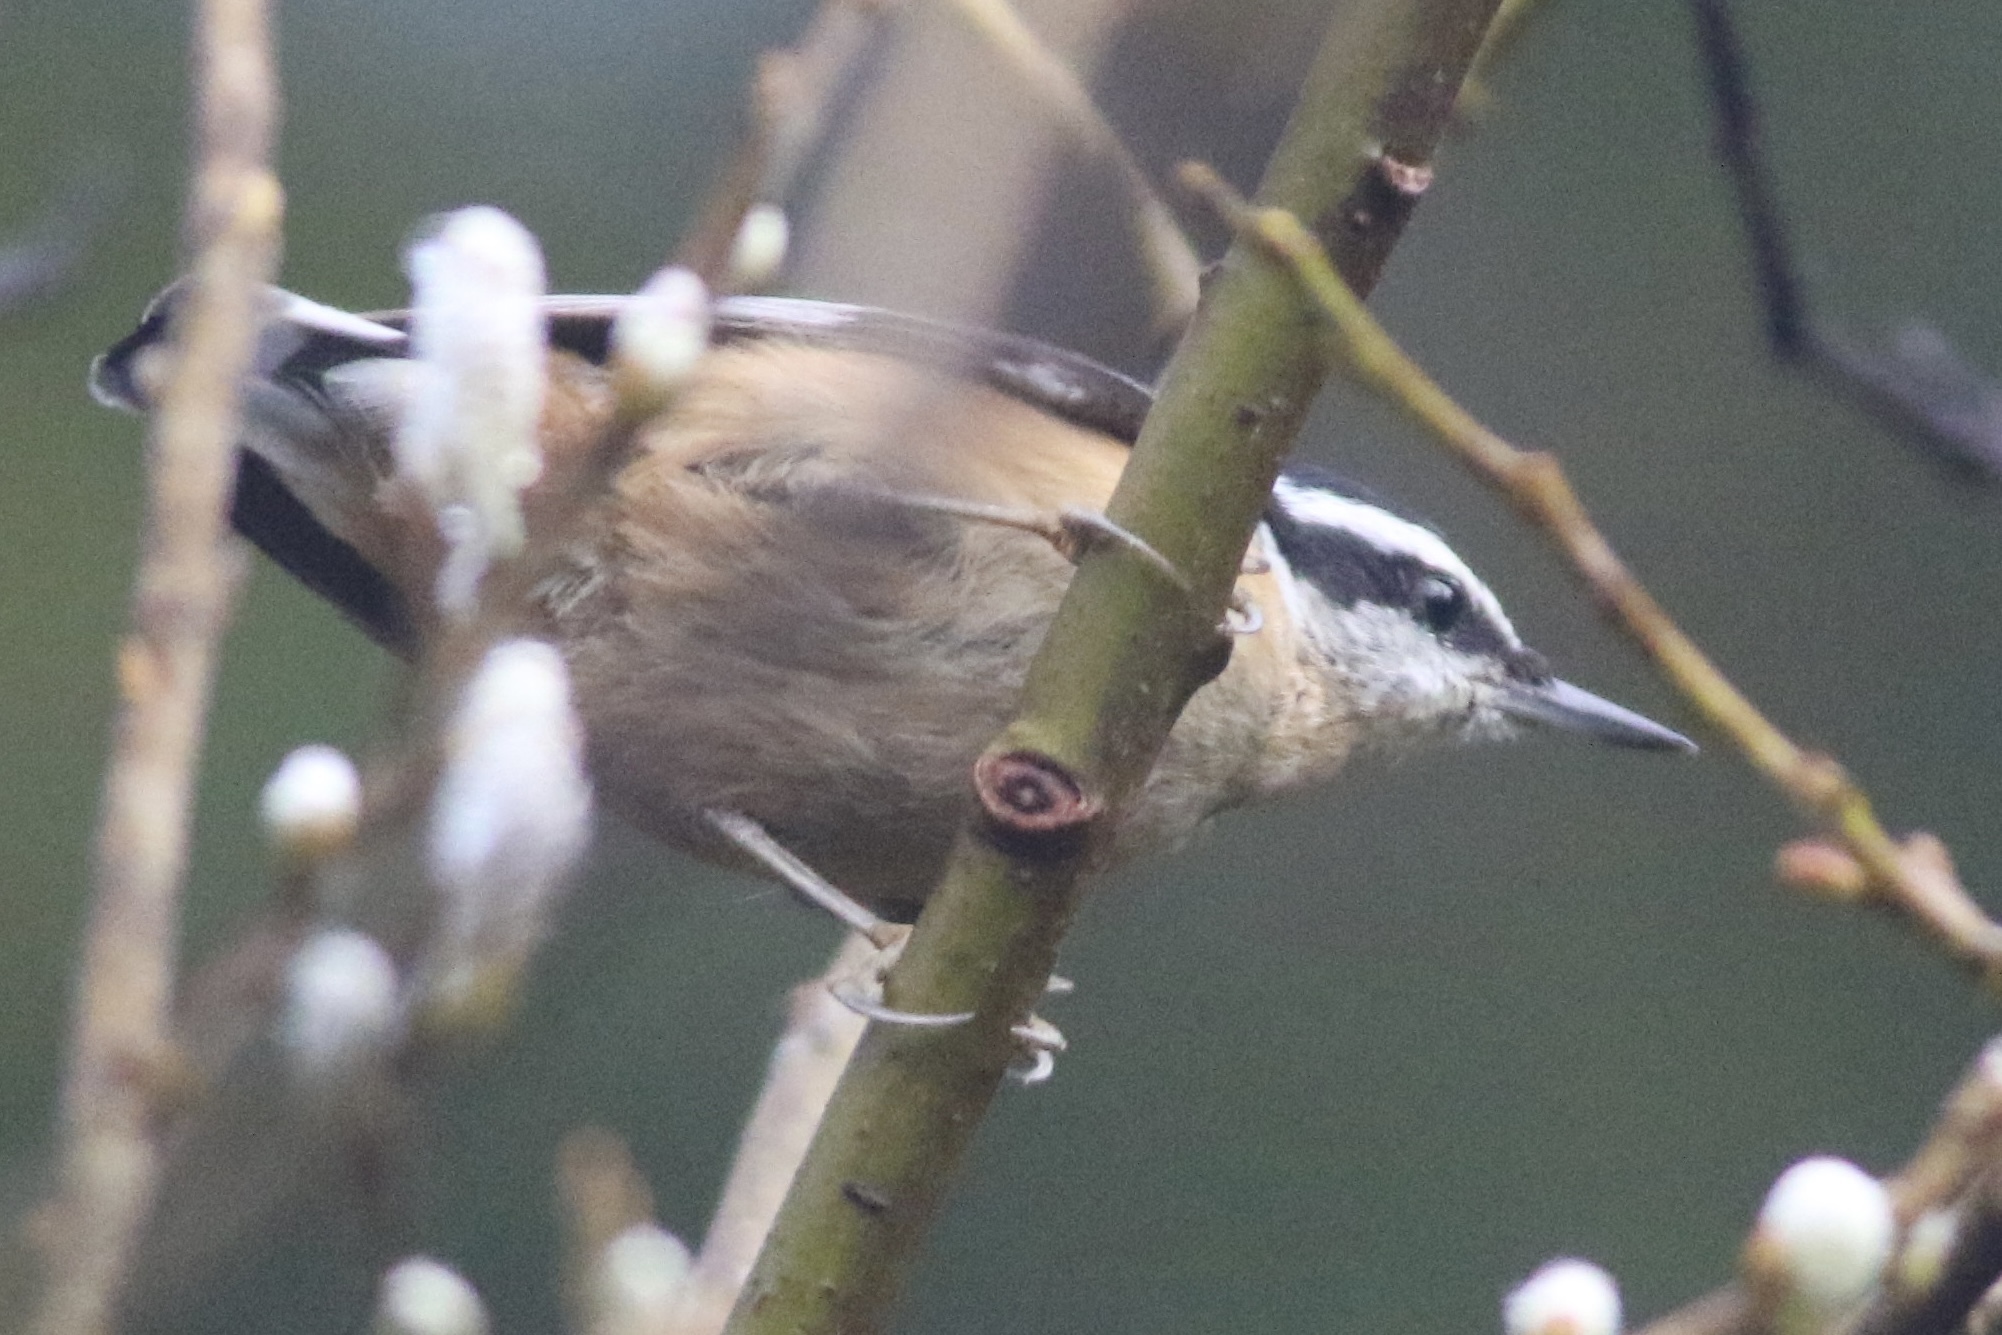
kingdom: Animalia
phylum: Chordata
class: Aves
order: Passeriformes
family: Sittidae
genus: Sitta
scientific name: Sitta canadensis
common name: Red-breasted nuthatch
